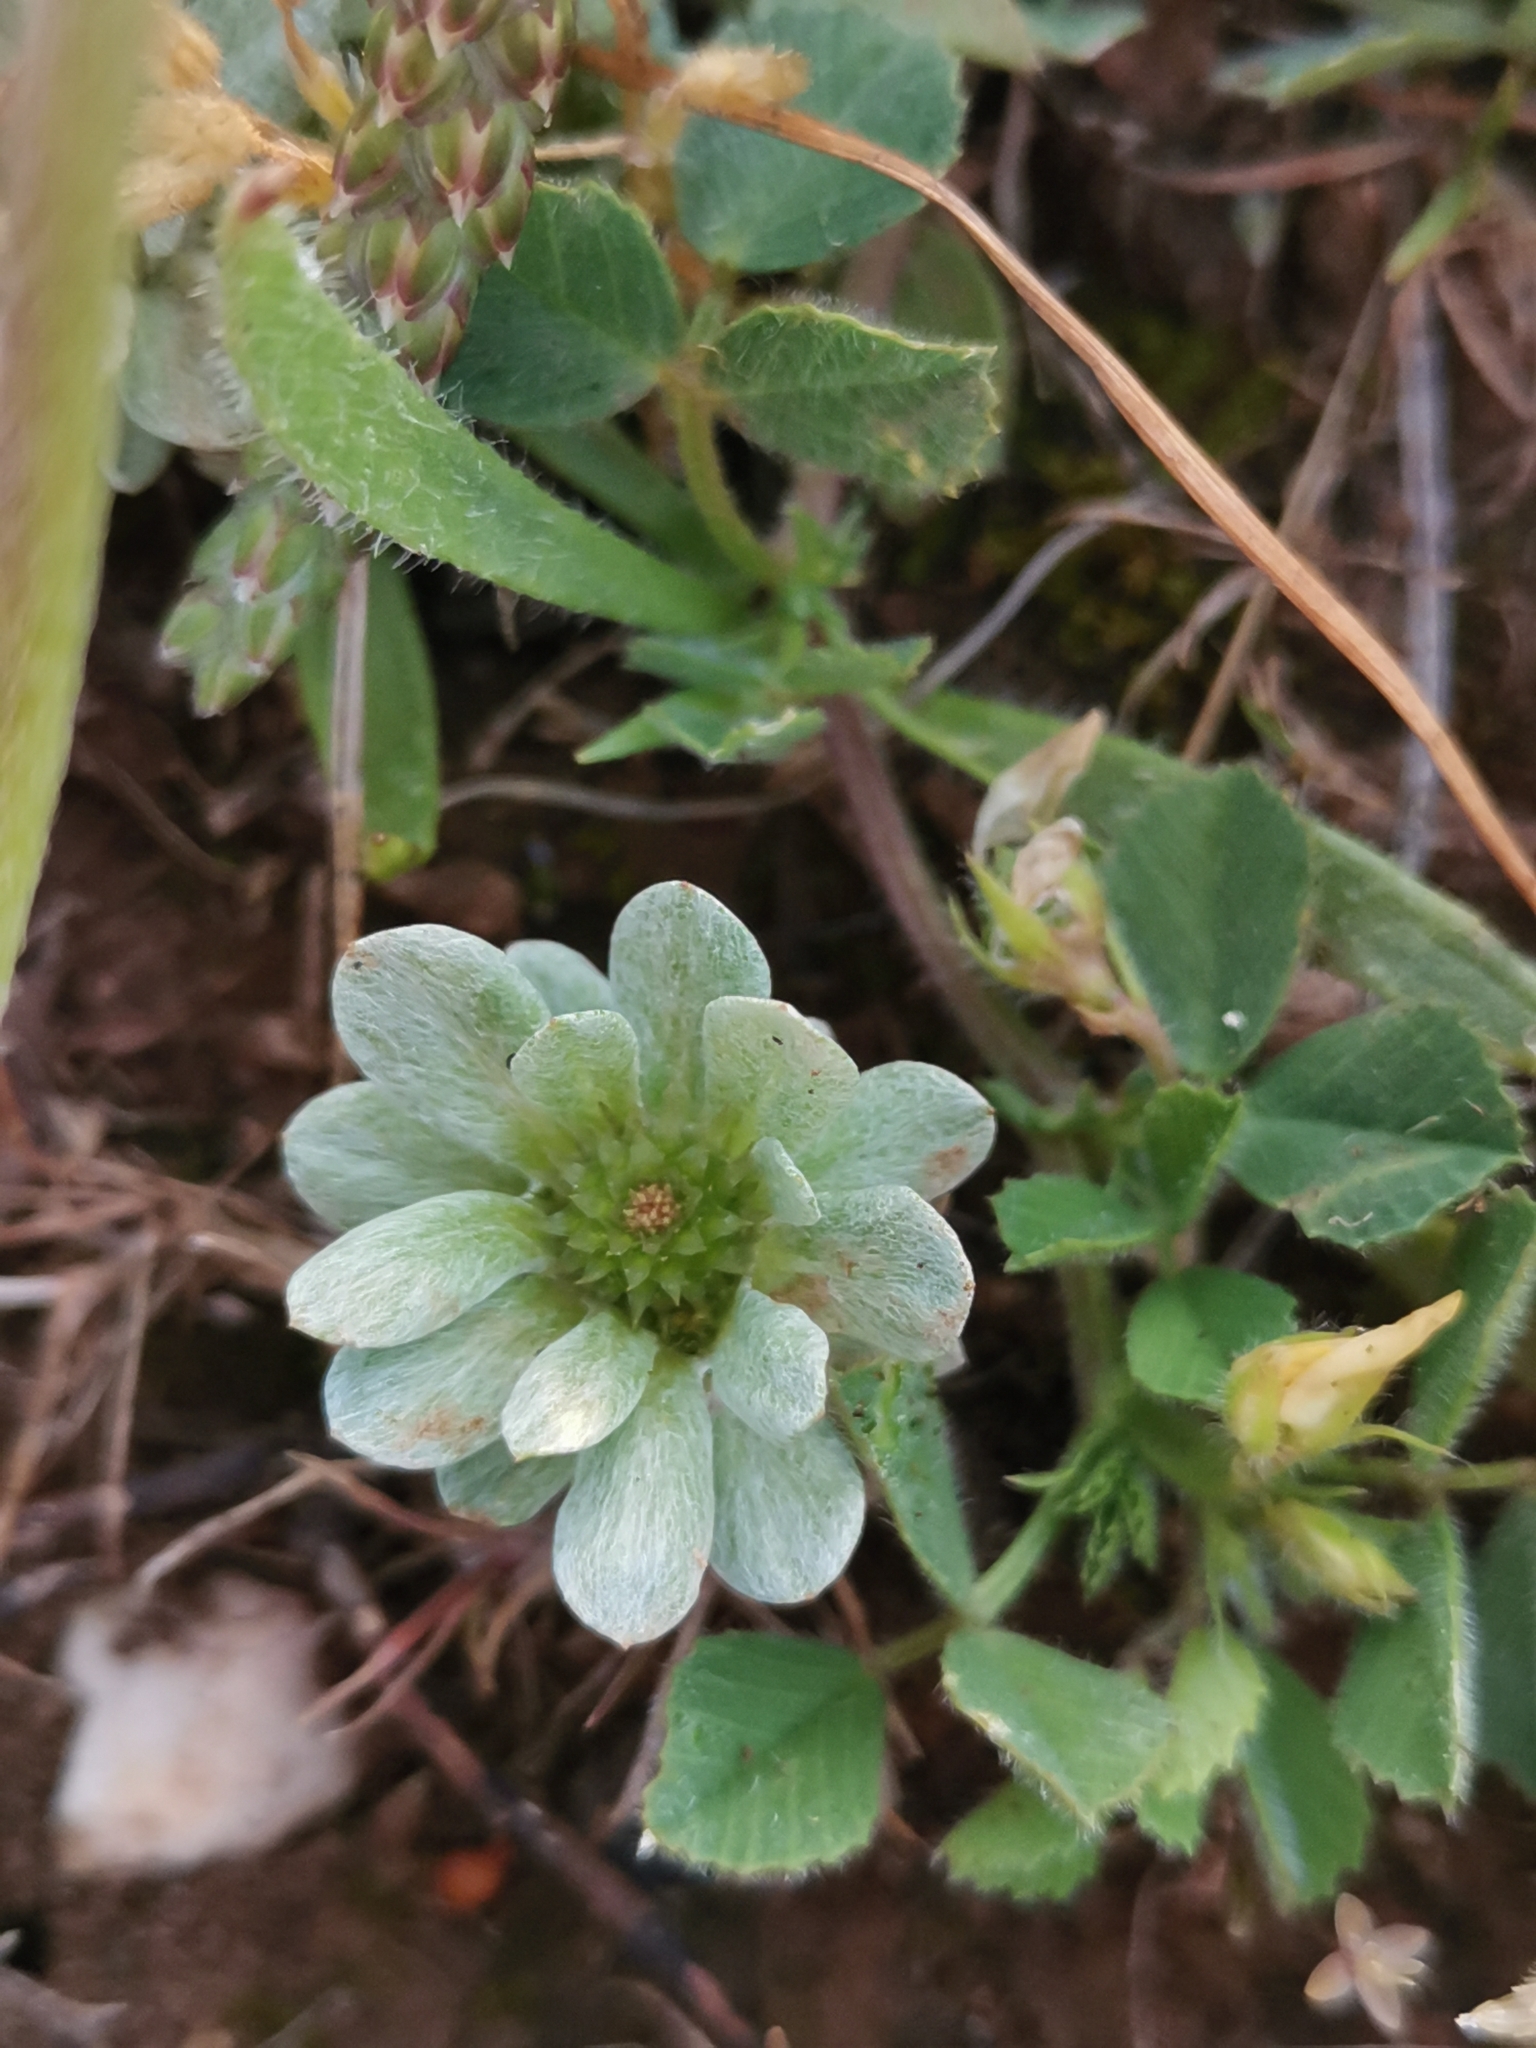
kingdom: Plantae
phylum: Tracheophyta
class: Magnoliopsida
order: Asterales
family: Asteraceae
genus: Filago
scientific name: Filago pygmaea
